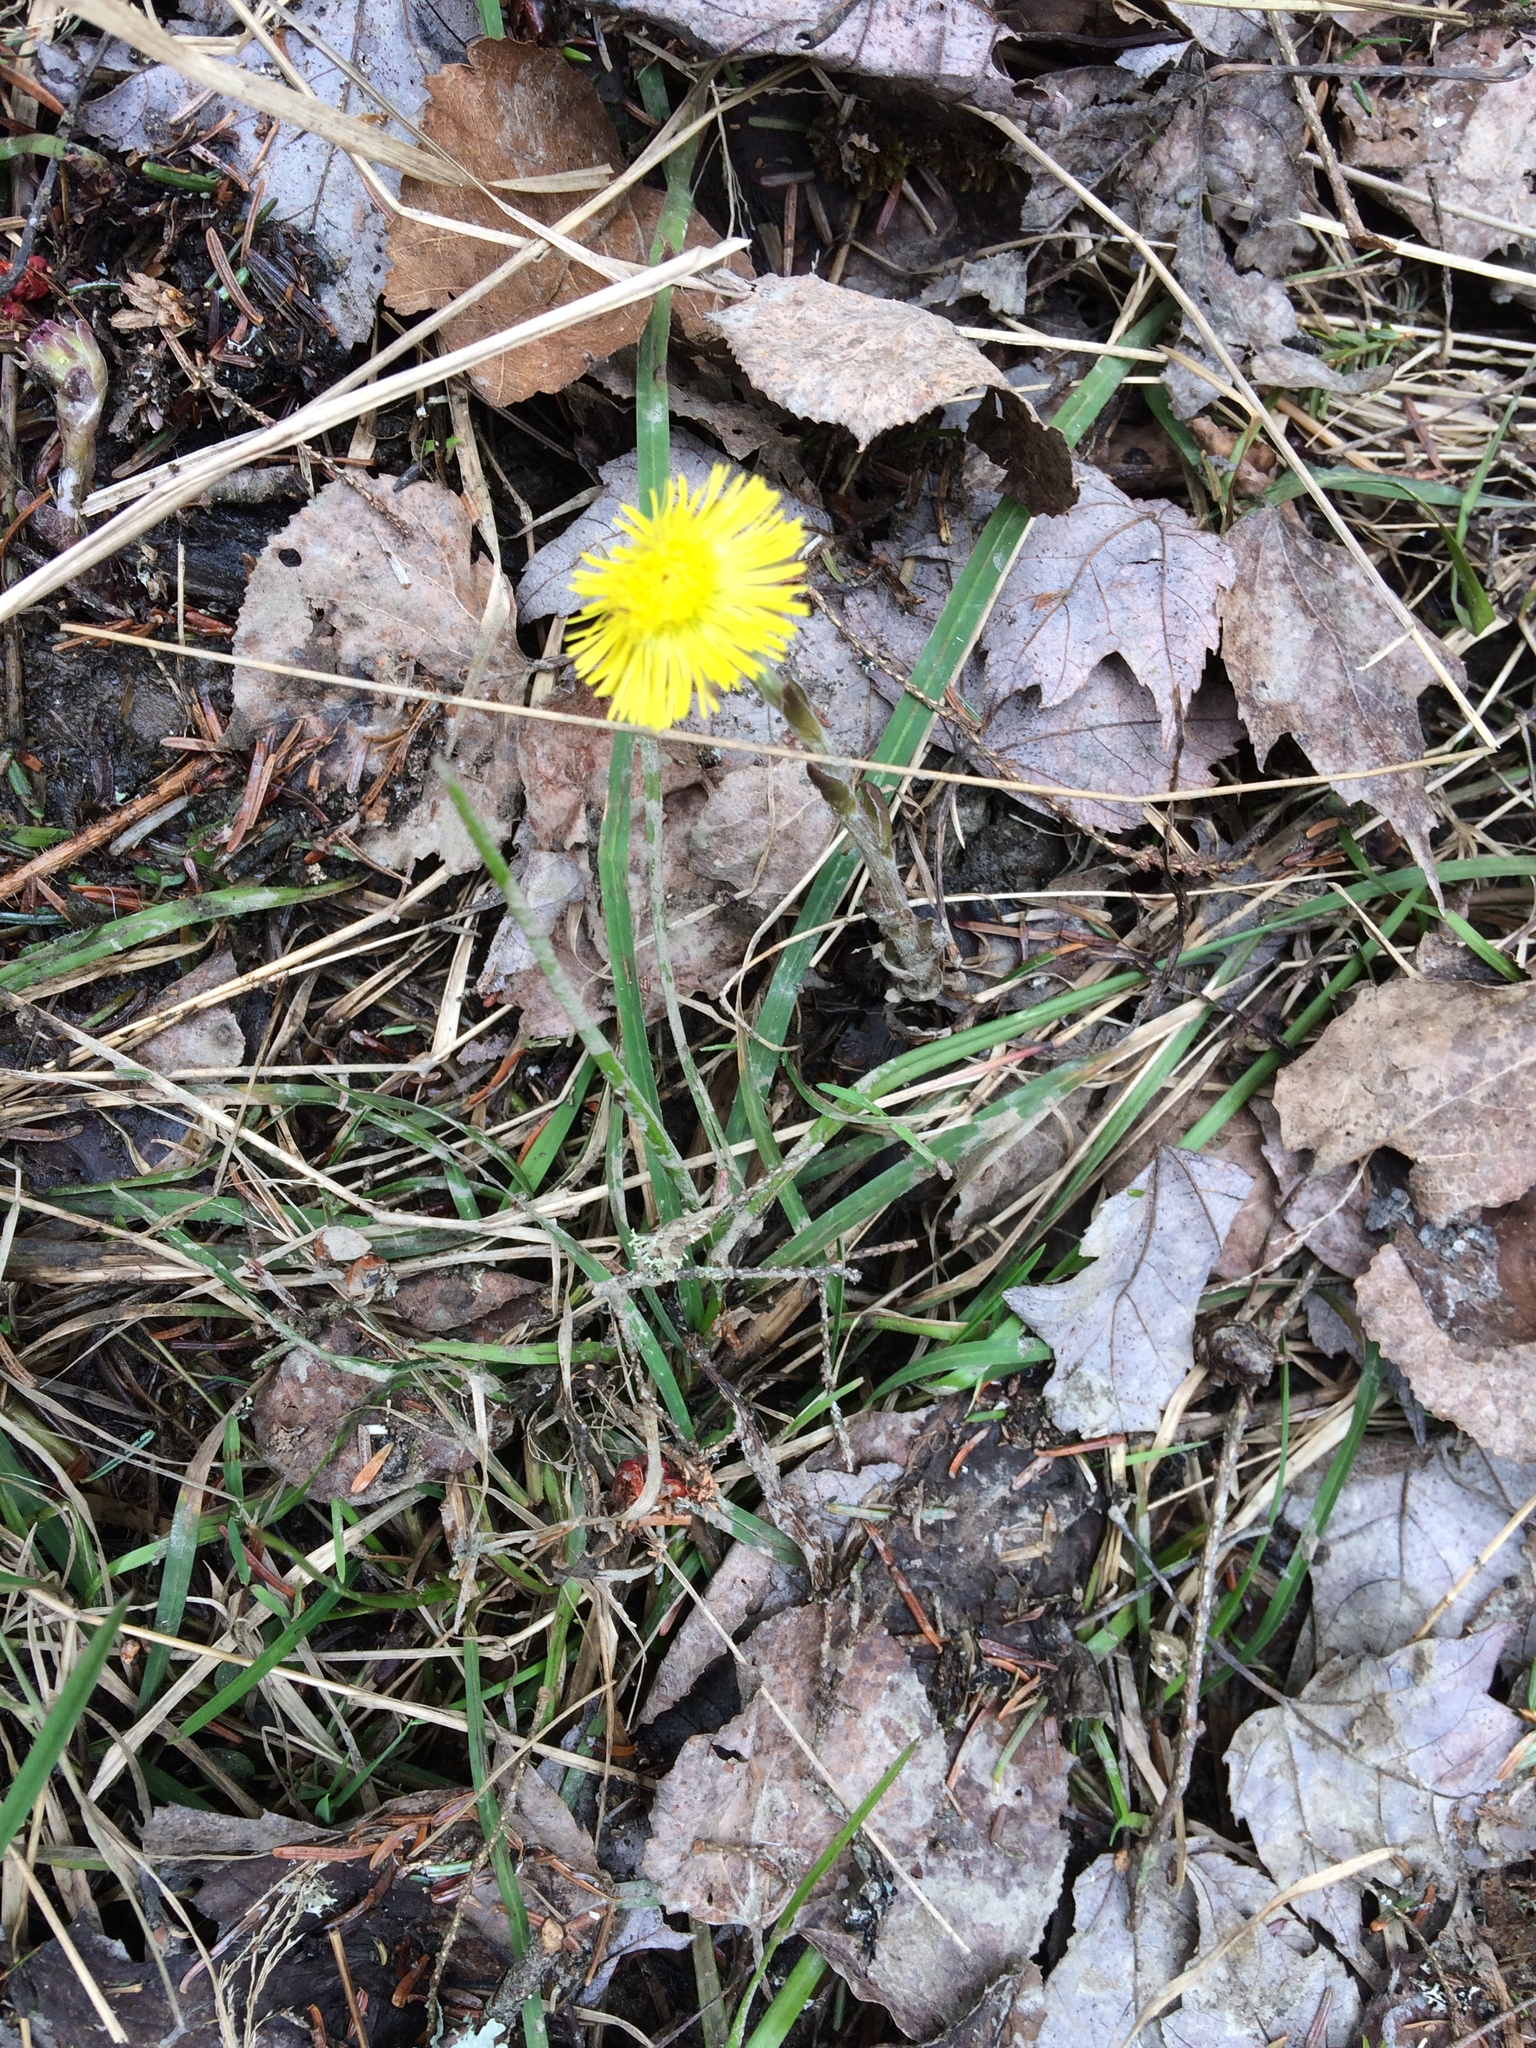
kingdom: Plantae
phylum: Tracheophyta
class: Magnoliopsida
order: Asterales
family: Asteraceae
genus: Tussilago
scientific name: Tussilago farfara
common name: Coltsfoot
